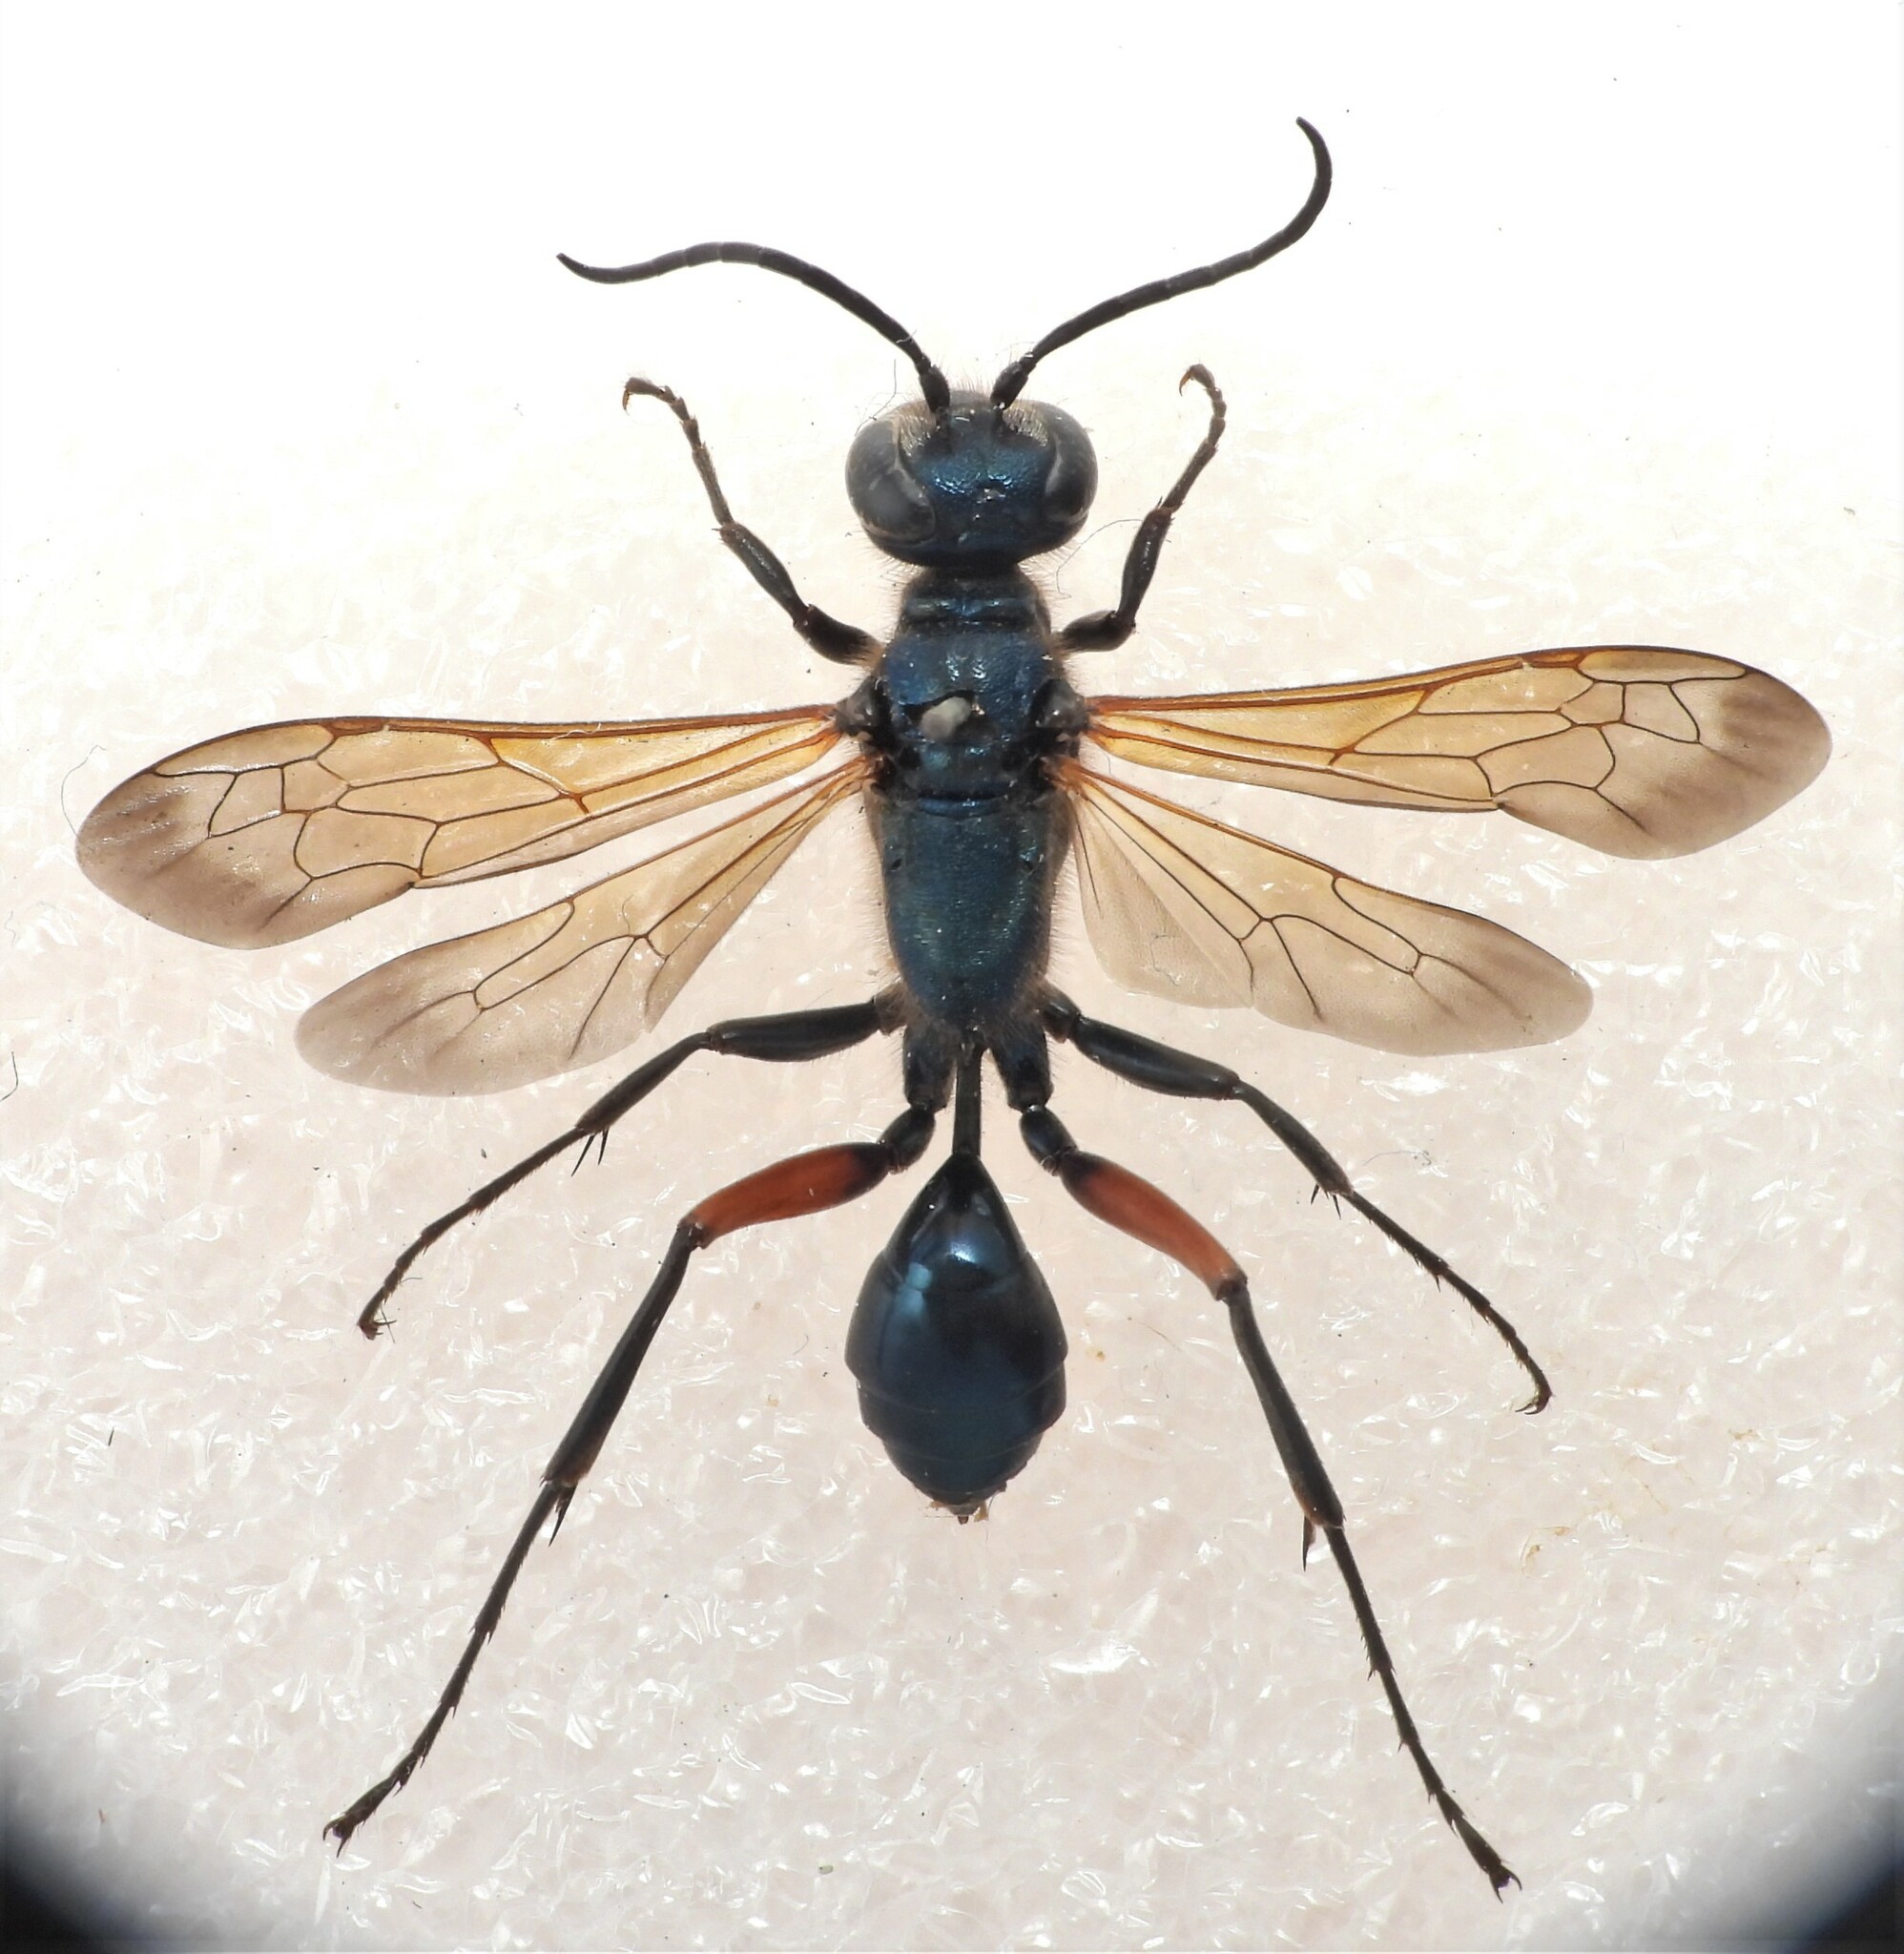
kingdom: Animalia
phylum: Arthropoda
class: Insecta
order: Hymenoptera
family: Sphecidae
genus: Chalybion
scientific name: Chalybion femoratum
